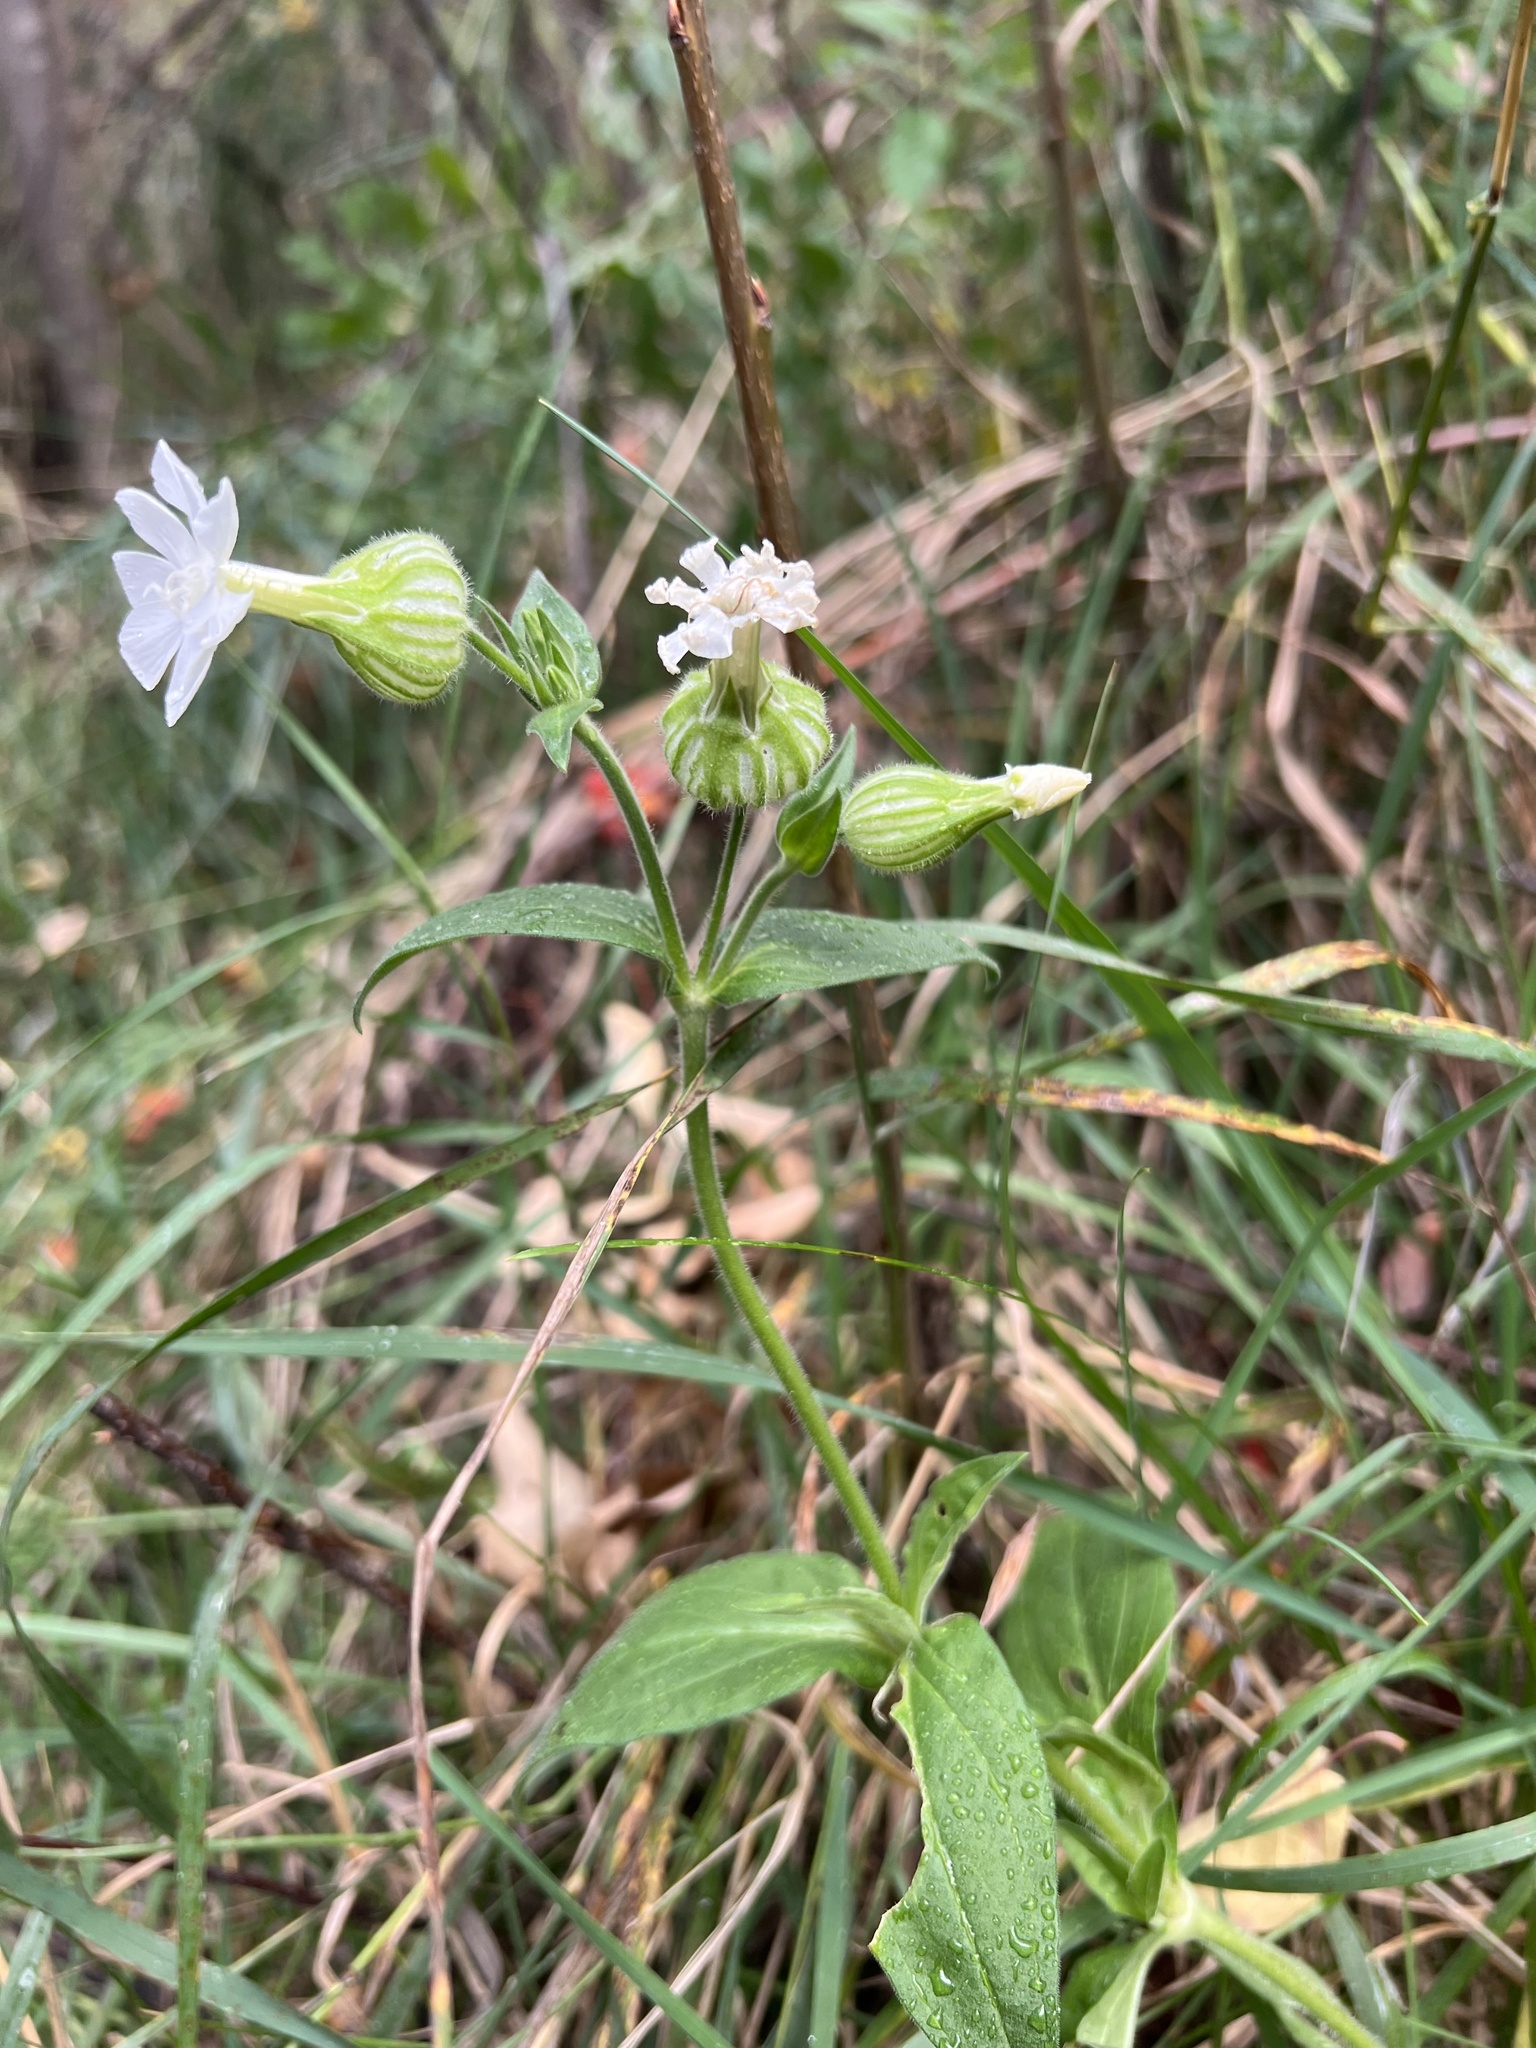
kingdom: Plantae
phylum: Tracheophyta
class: Magnoliopsida
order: Caryophyllales
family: Caryophyllaceae
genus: Silene
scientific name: Silene latifolia
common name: White campion
